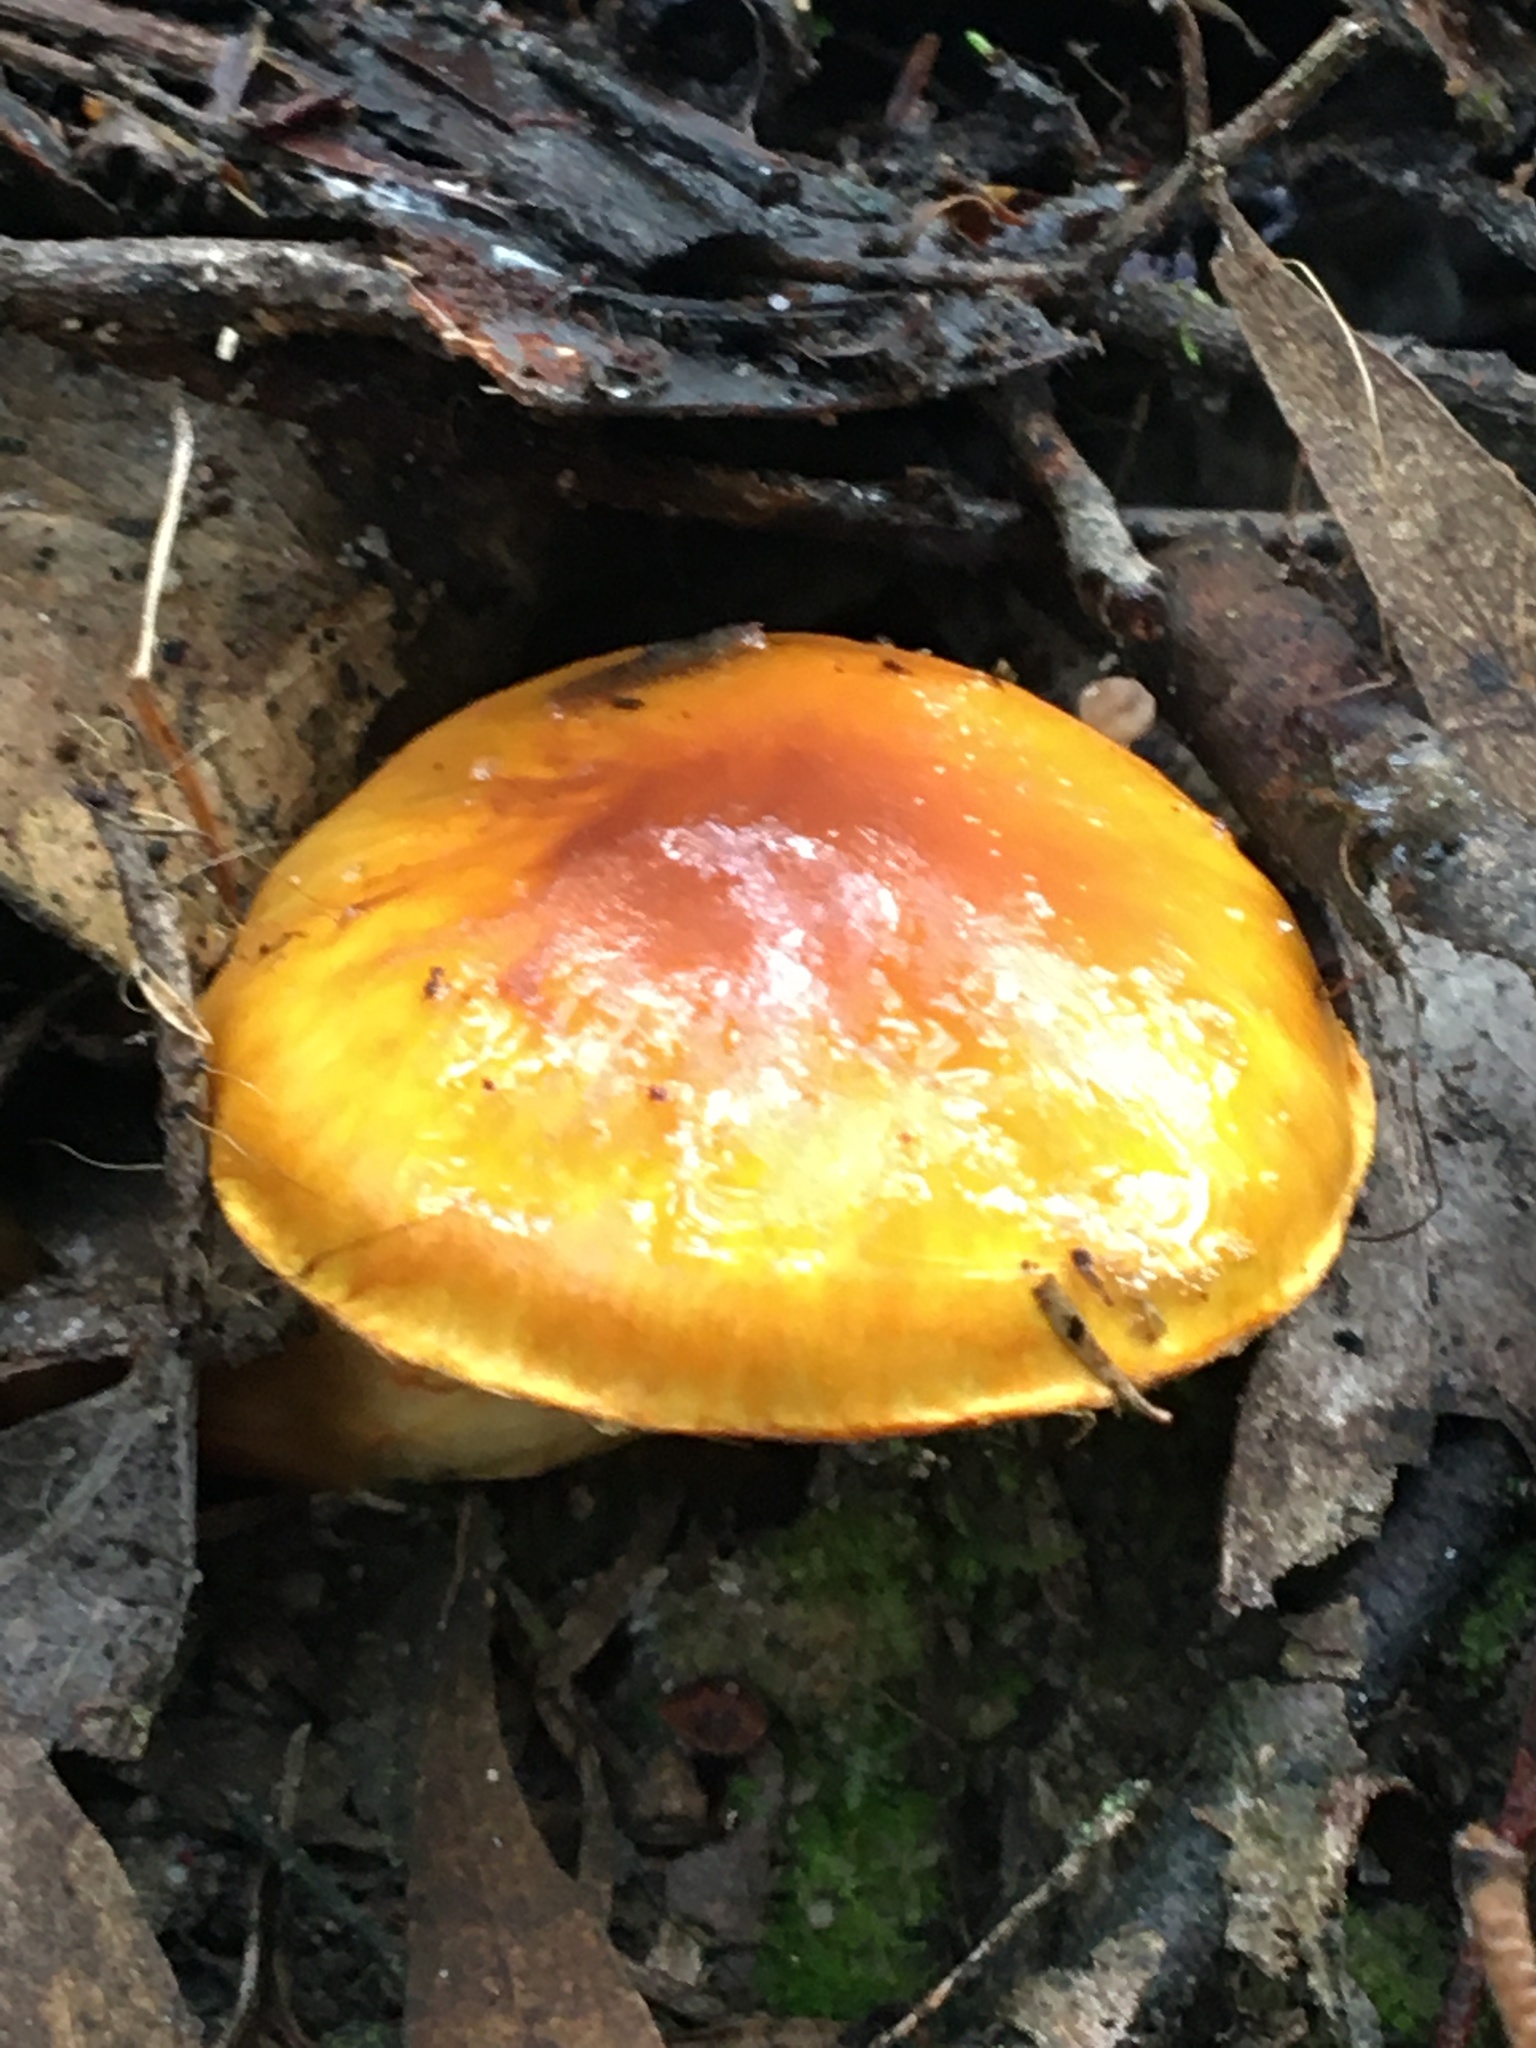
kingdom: Fungi
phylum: Basidiomycota
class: Agaricomycetes
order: Agaricales
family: Cortinariaceae
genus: Cortinarius
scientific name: Cortinarius sinapicolor
